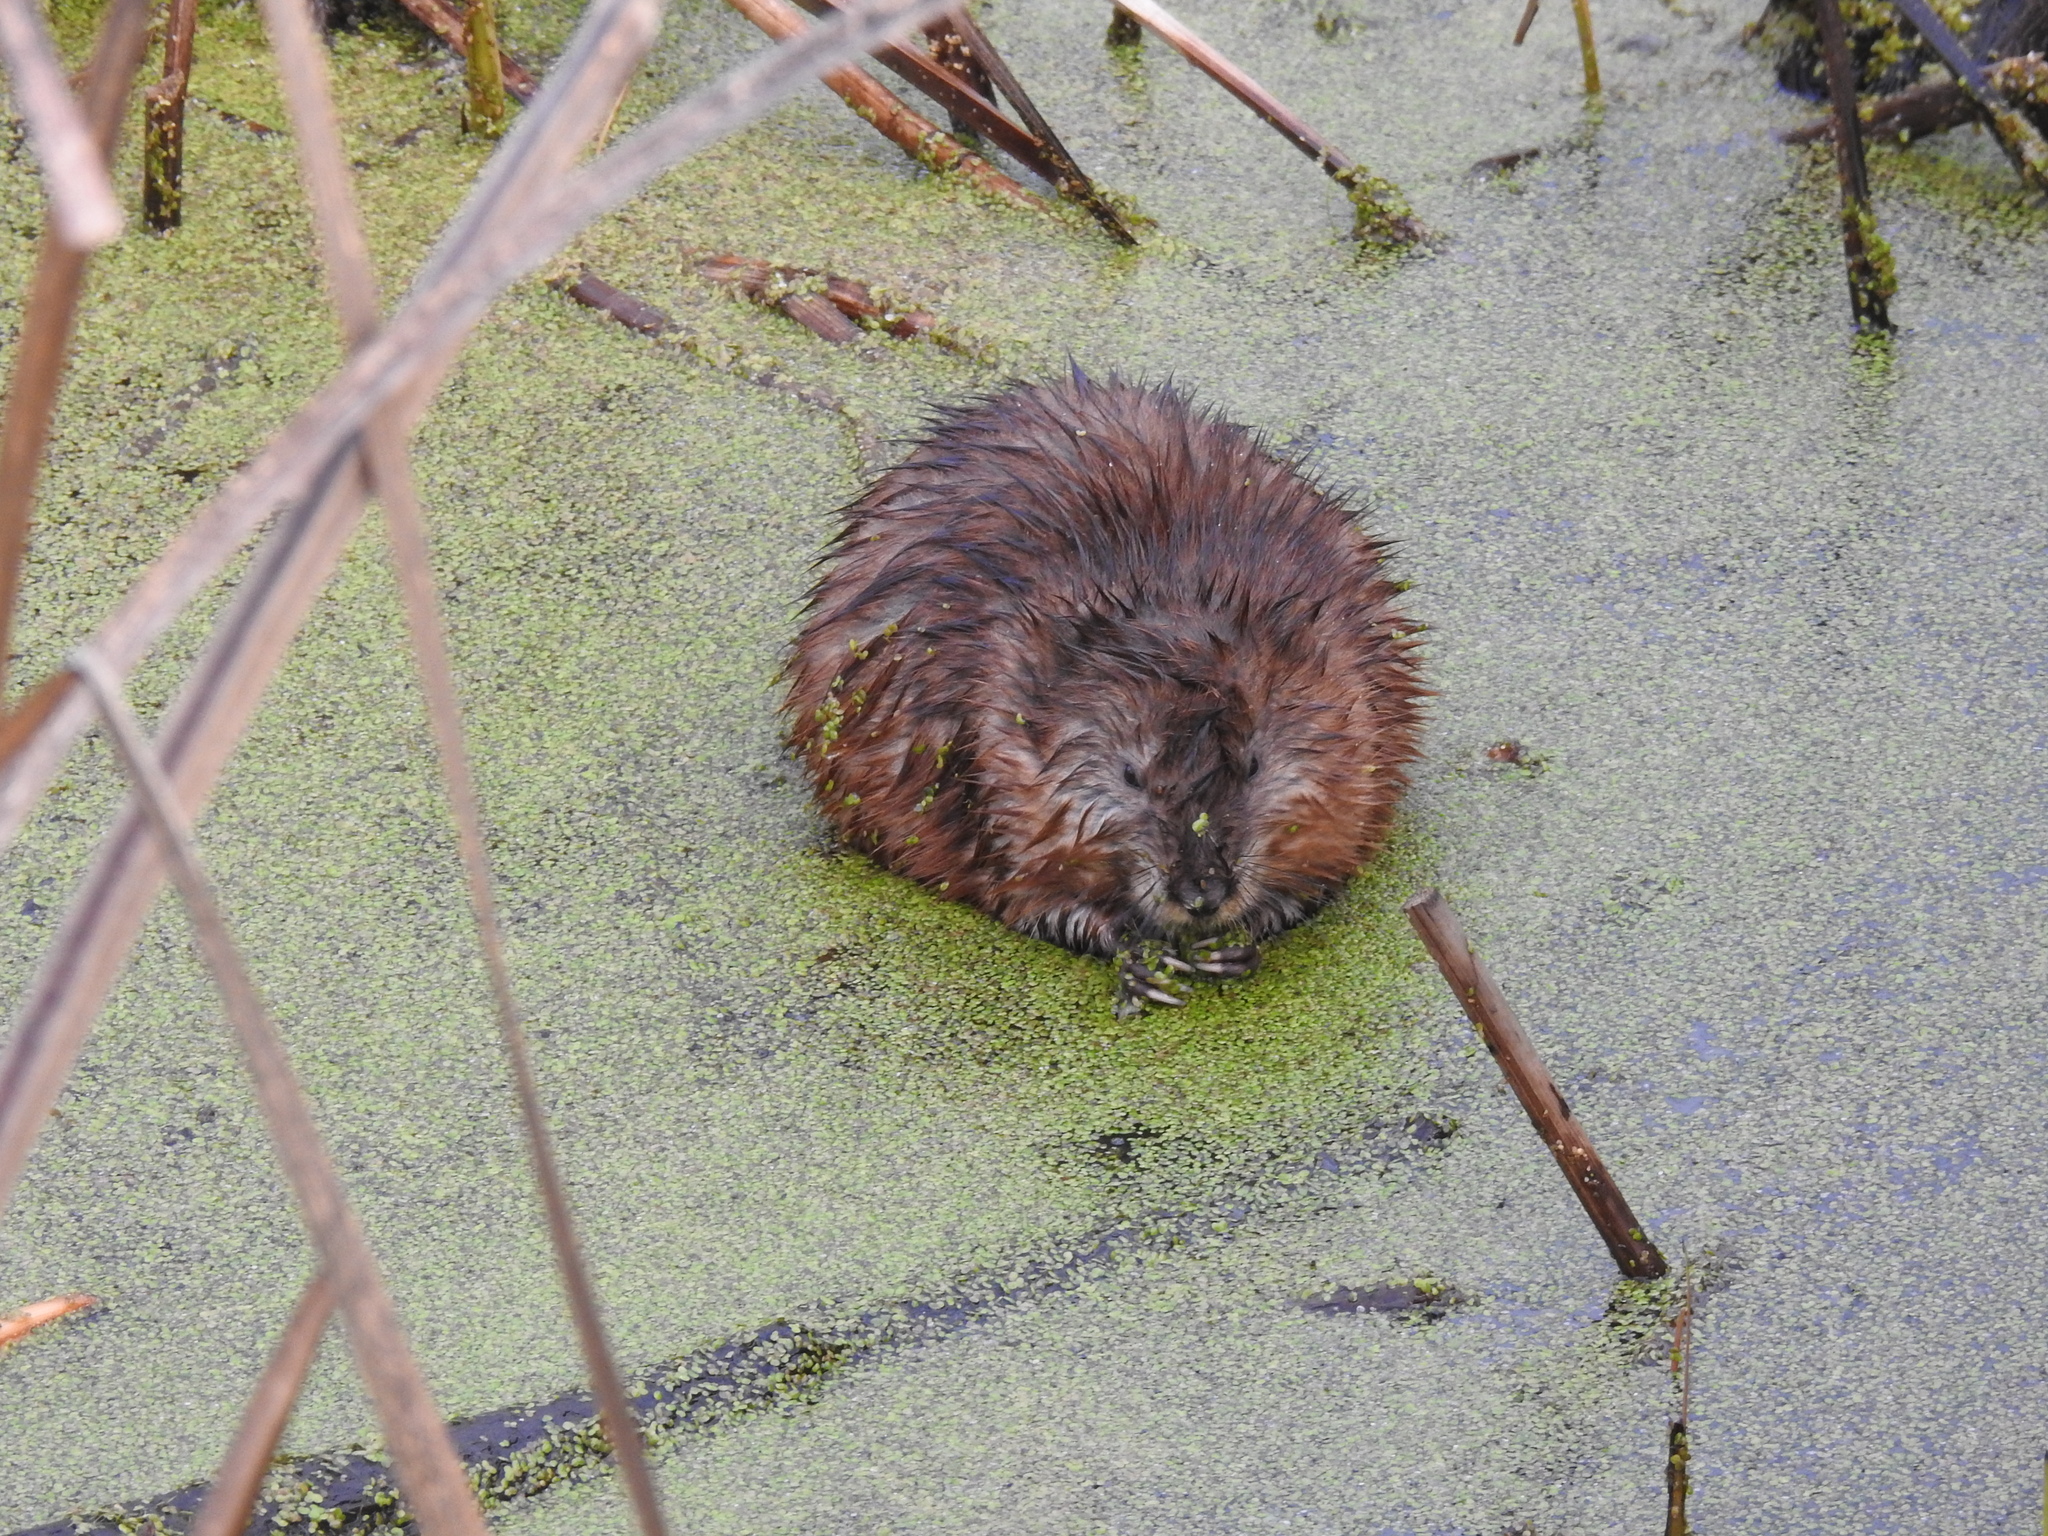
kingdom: Animalia
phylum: Chordata
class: Mammalia
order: Rodentia
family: Cricetidae
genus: Ondatra
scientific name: Ondatra zibethicus
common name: Muskrat
